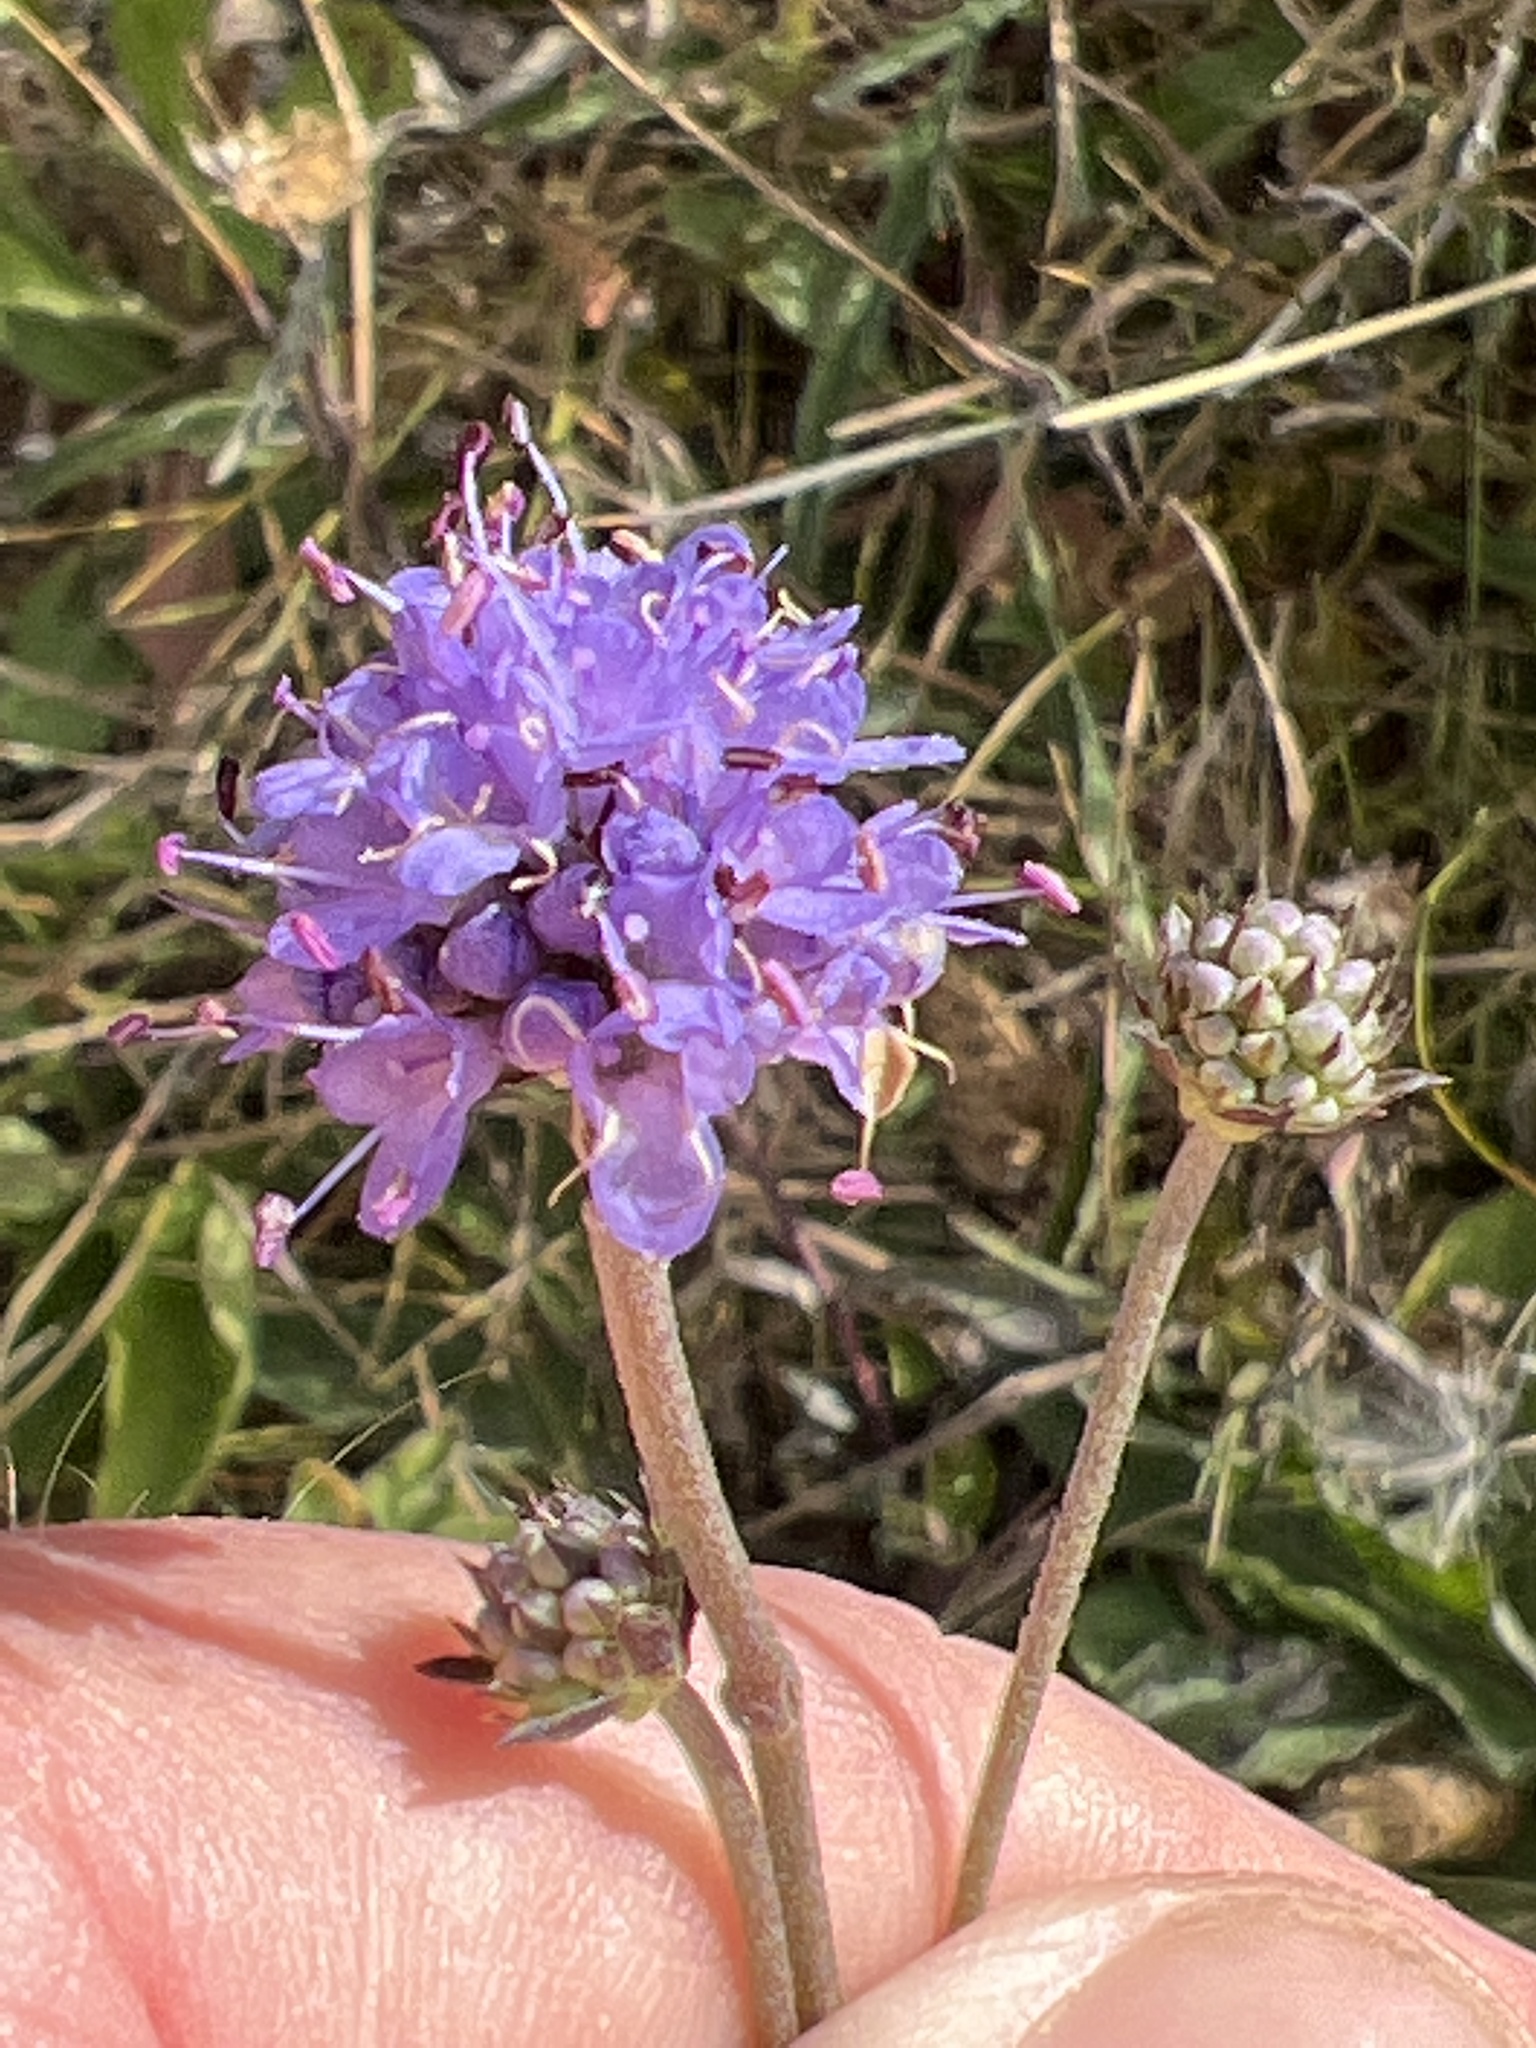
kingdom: Plantae
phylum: Tracheophyta
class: Magnoliopsida
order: Dipsacales
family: Caprifoliaceae
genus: Succisa
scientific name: Succisa pratensis
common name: Devil's-bit
